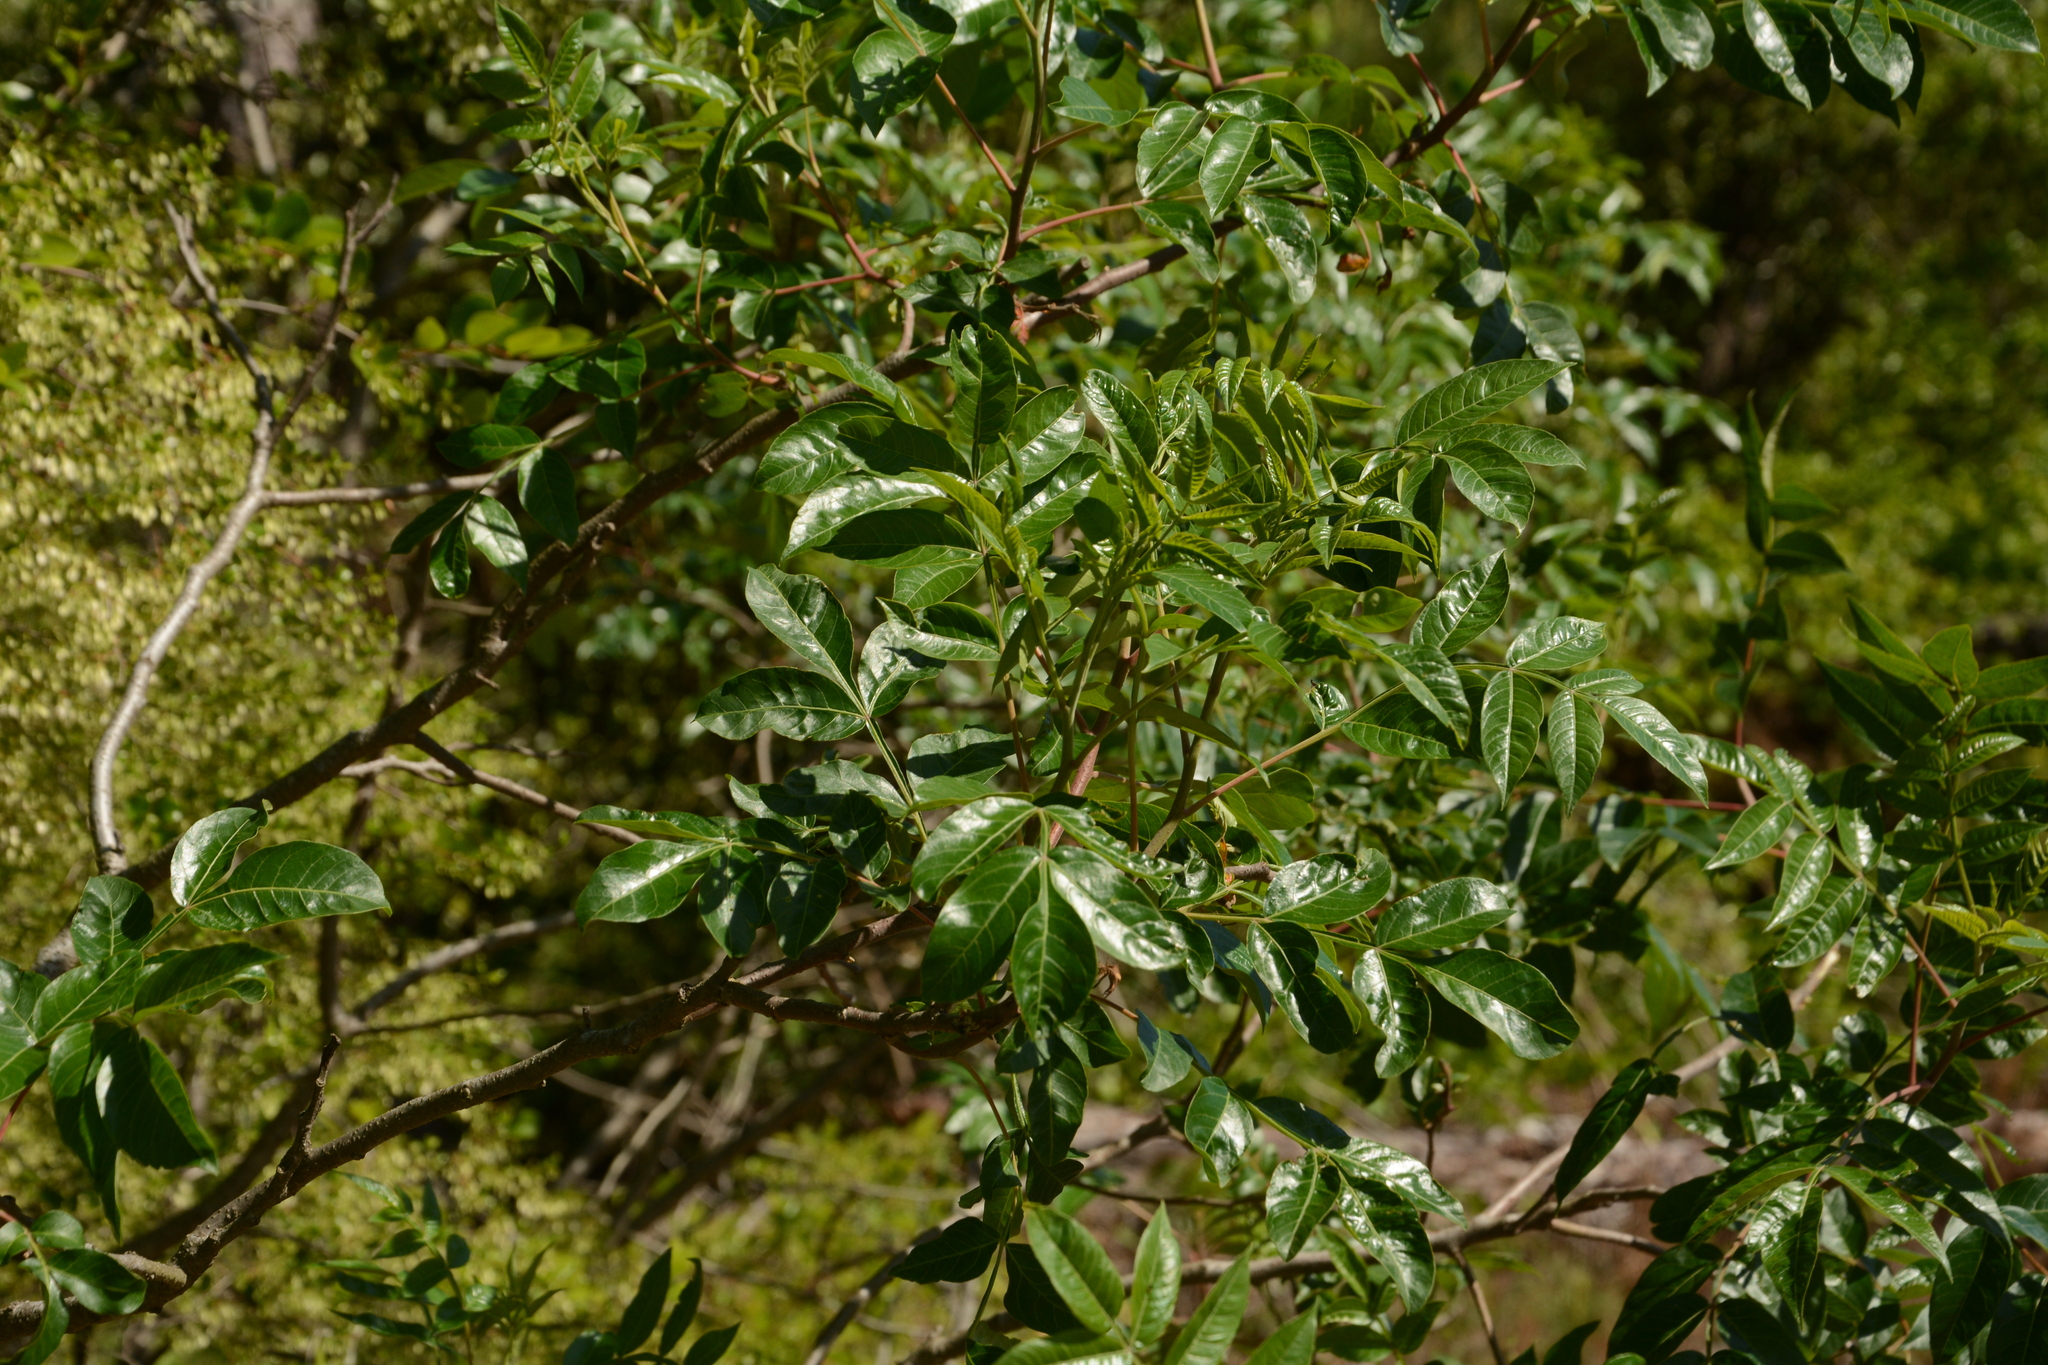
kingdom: Plantae
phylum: Tracheophyta
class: Magnoliopsida
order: Sapindales
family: Anacardiaceae
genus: Rhus
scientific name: Rhus copallina
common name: Shining sumac
